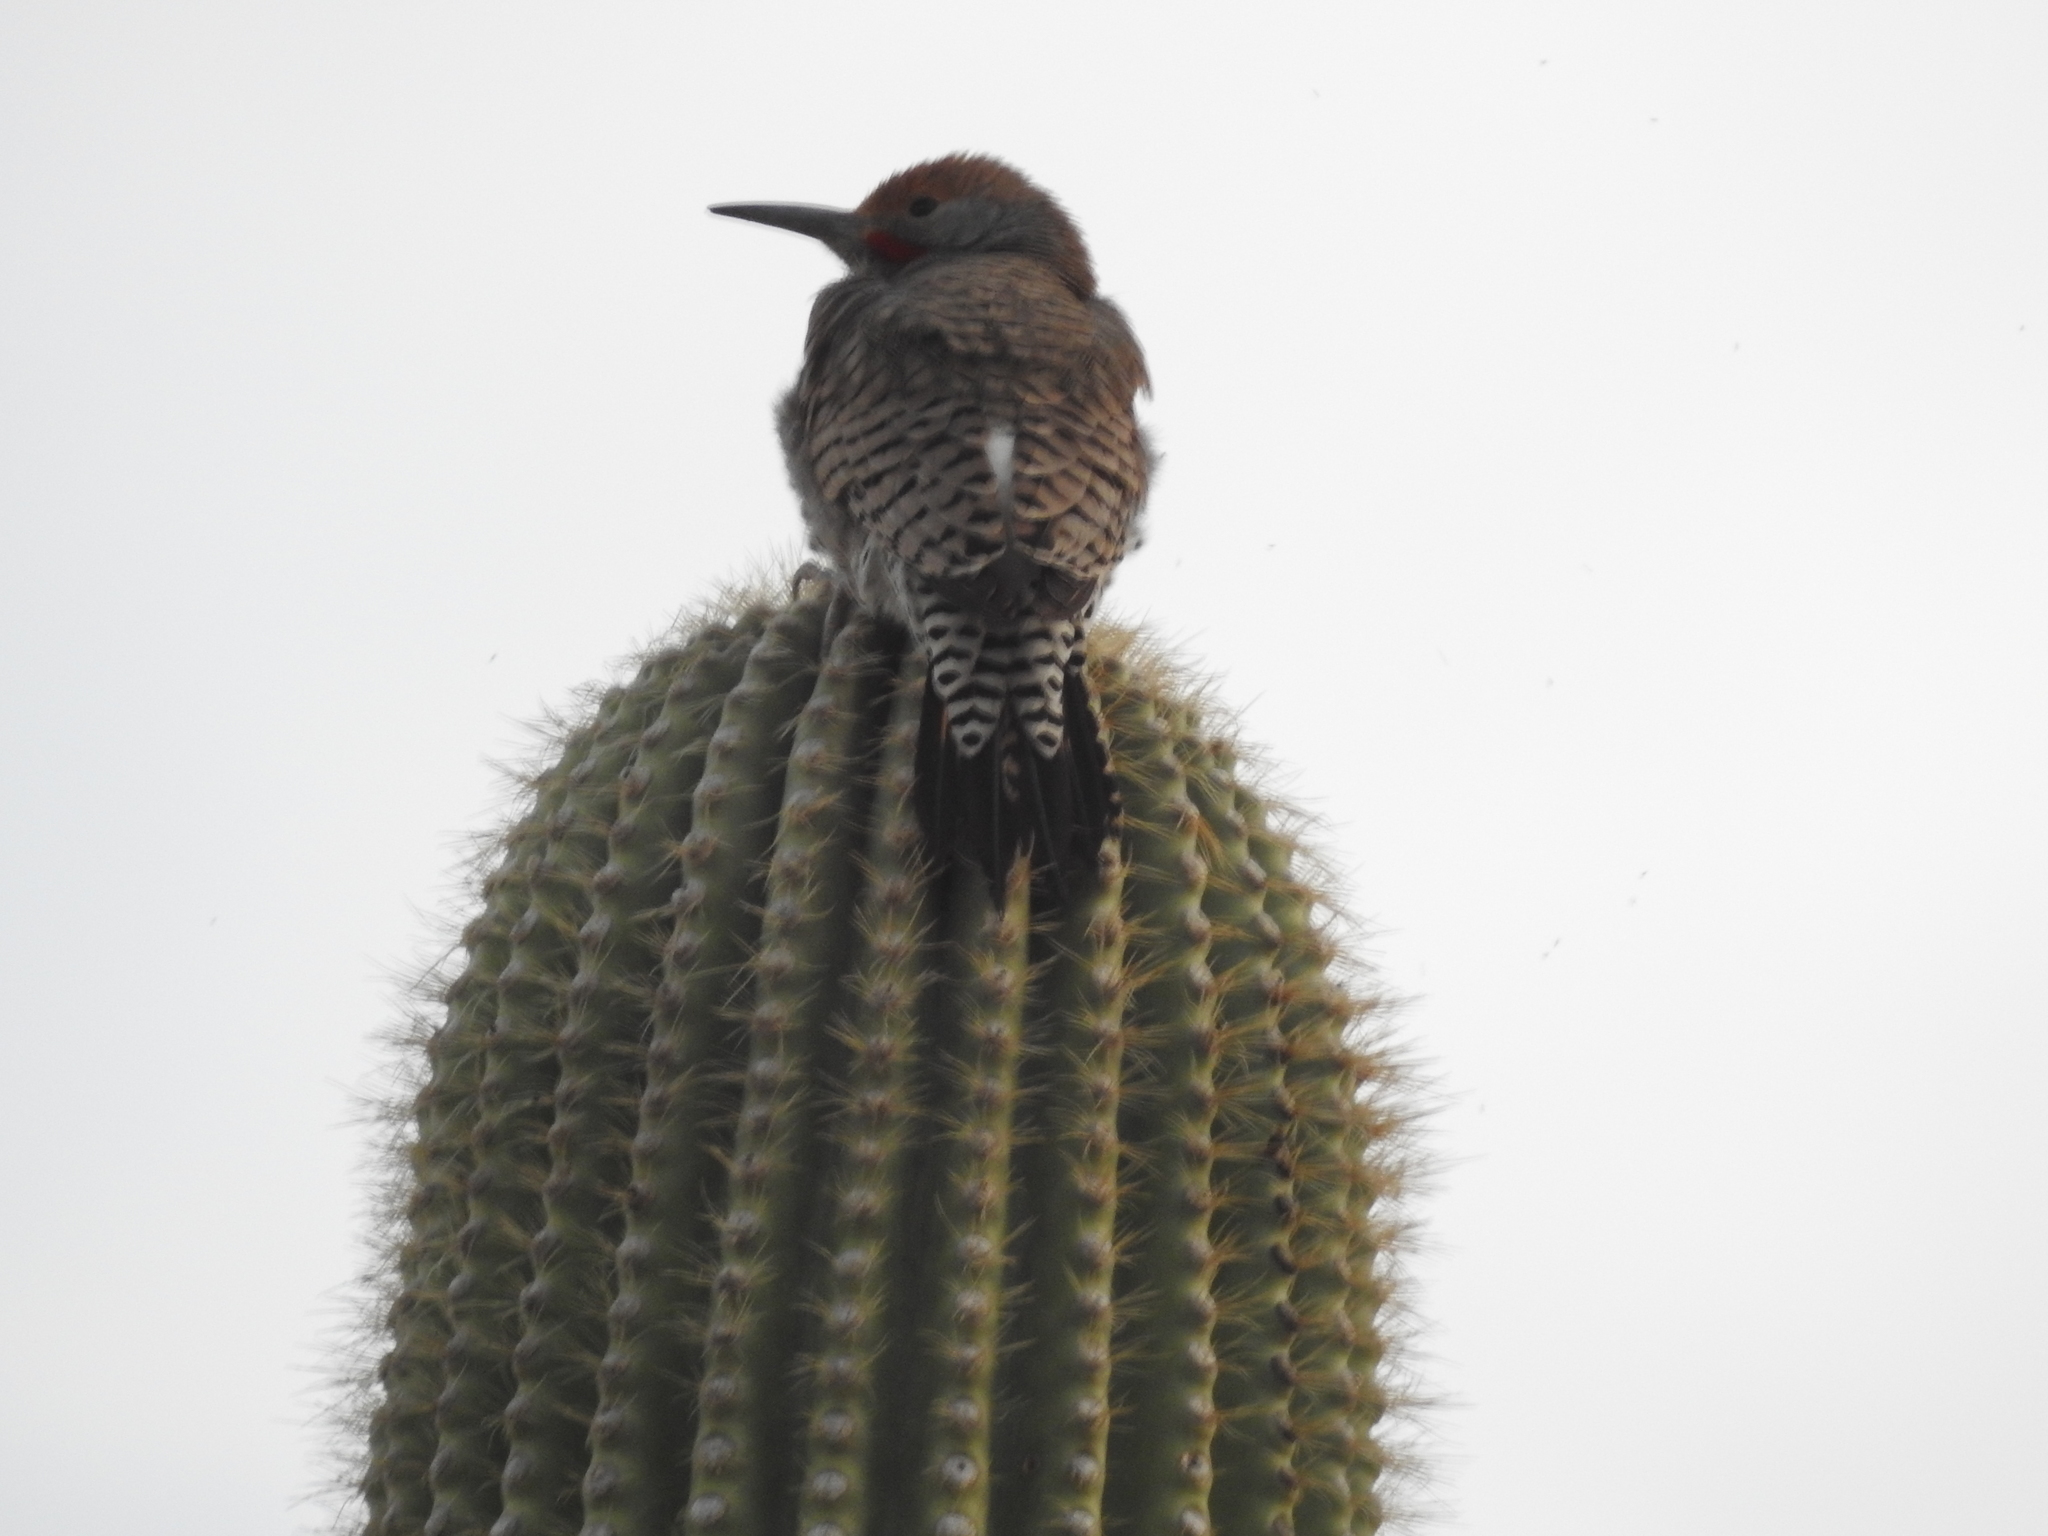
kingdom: Animalia
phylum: Chordata
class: Aves
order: Piciformes
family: Picidae
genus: Colaptes
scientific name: Colaptes chrysoides
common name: Gilded flicker
